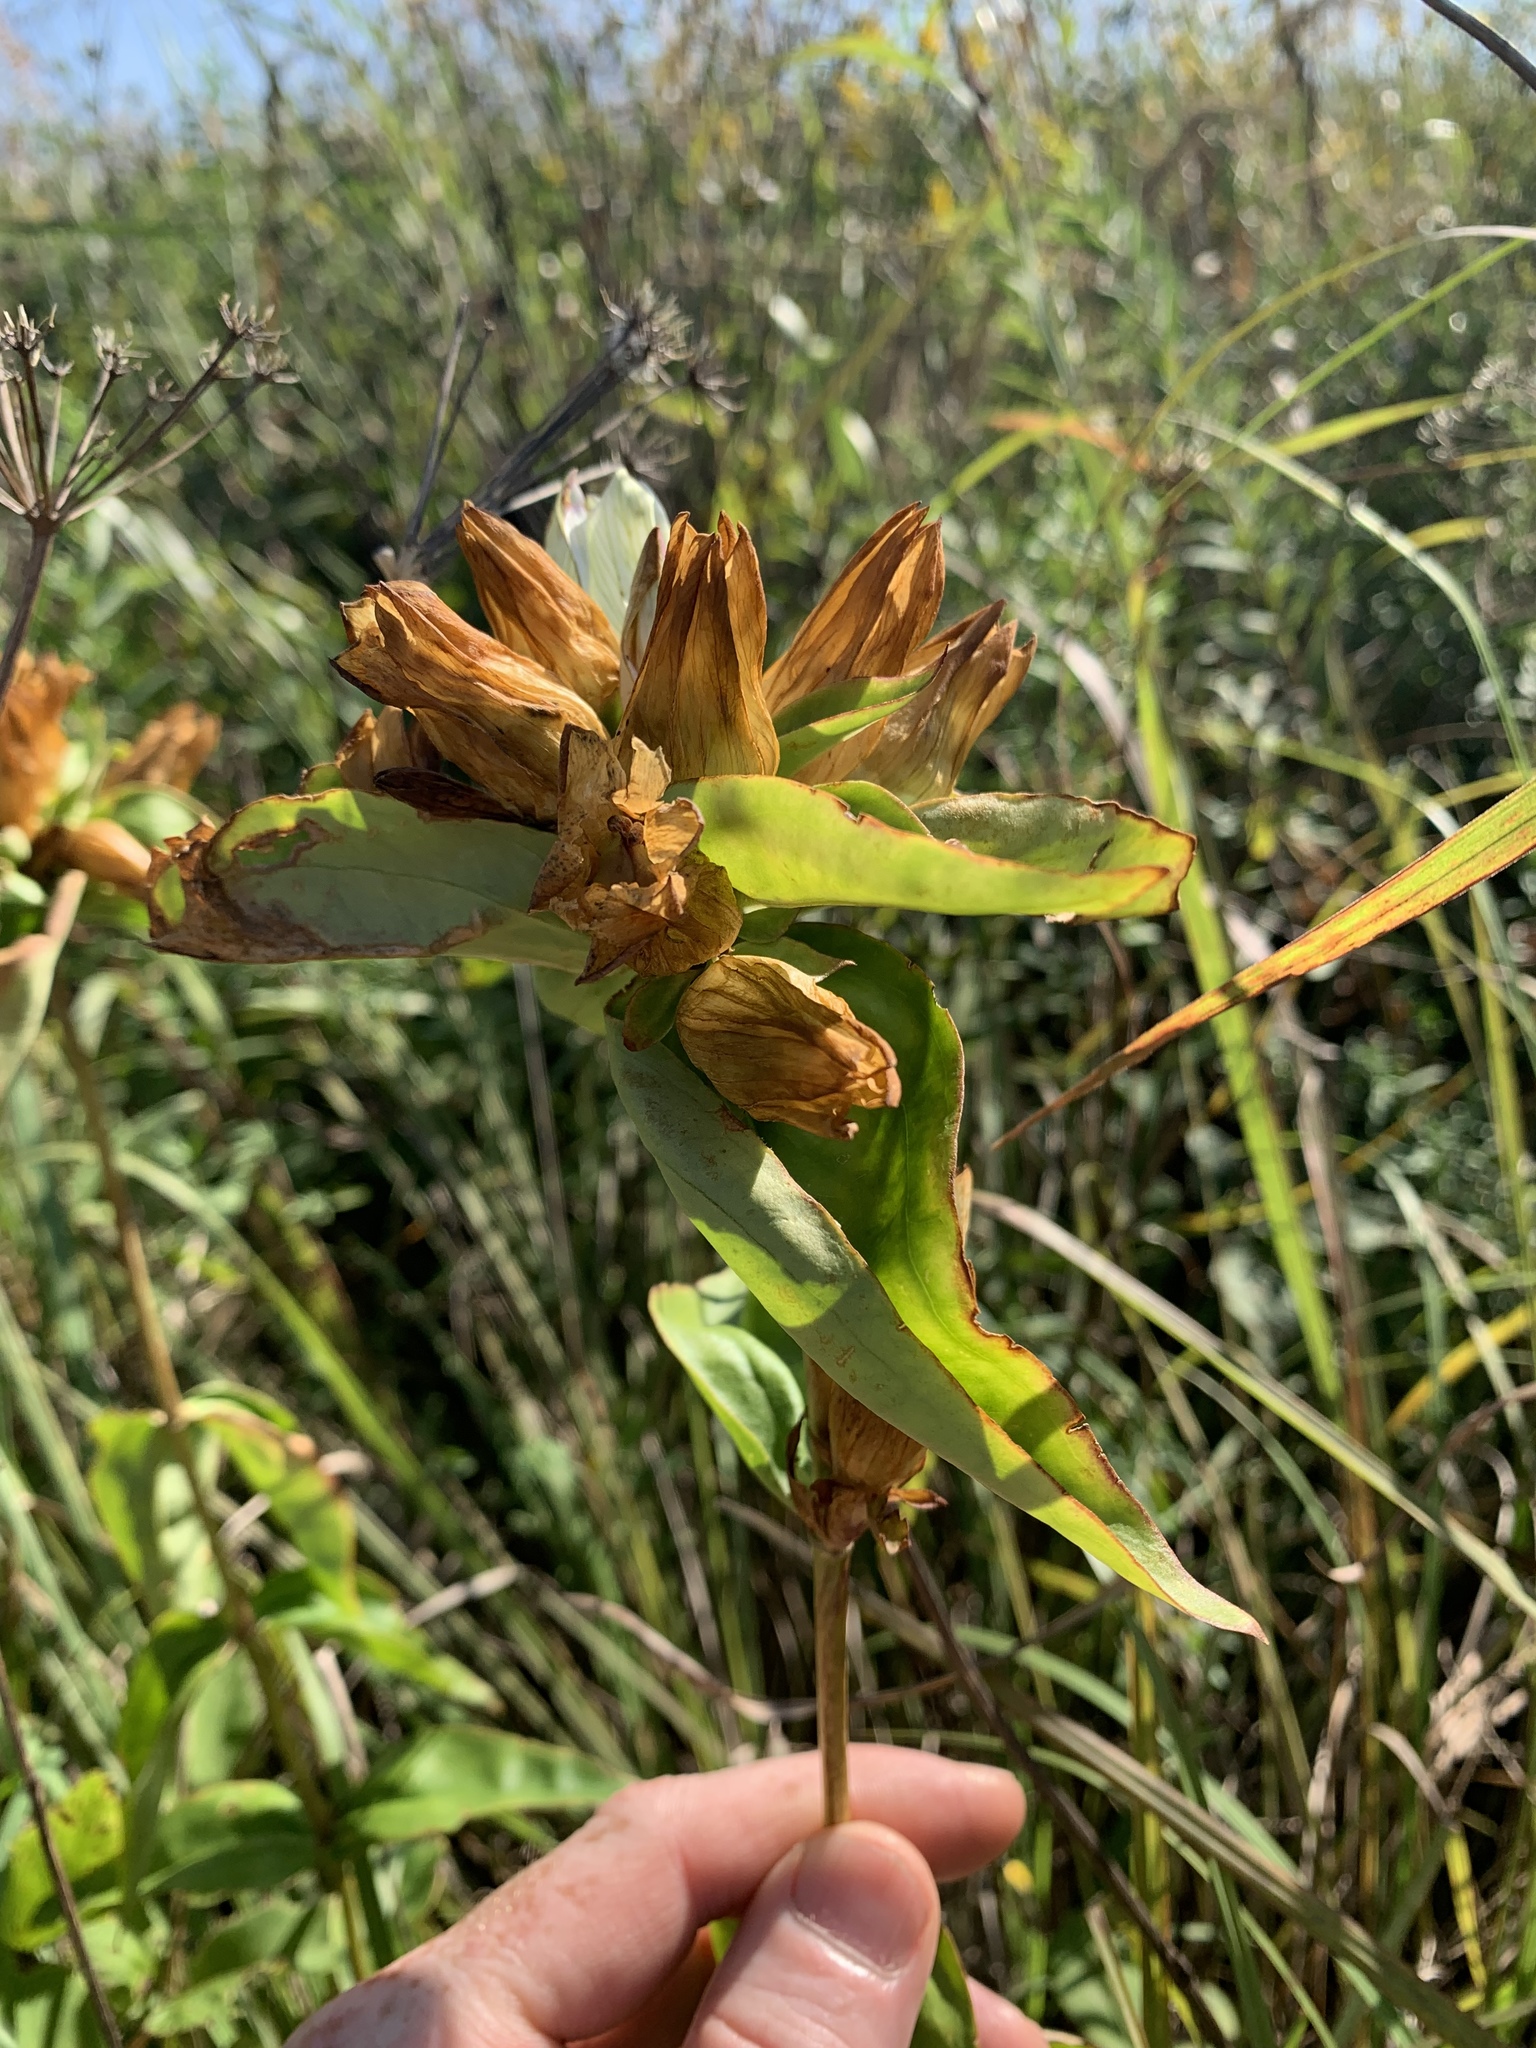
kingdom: Plantae
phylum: Tracheophyta
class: Magnoliopsida
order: Gentianales
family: Gentianaceae
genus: Gentiana
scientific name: Gentiana alba
